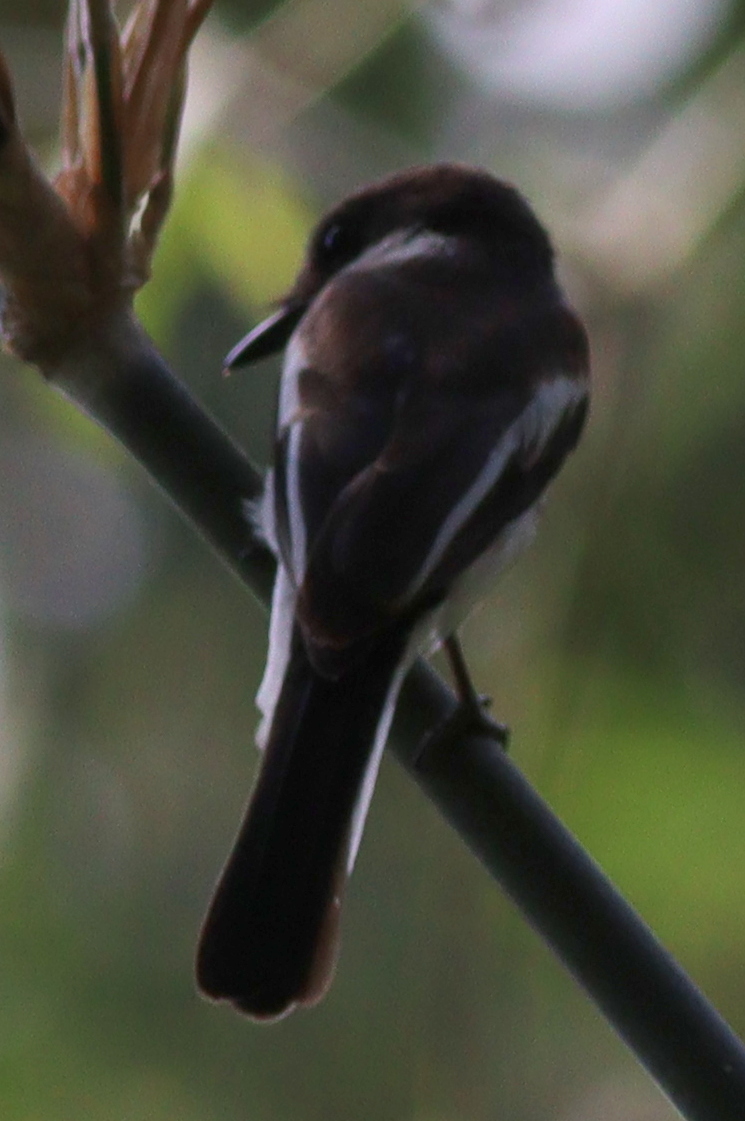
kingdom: Animalia
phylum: Chordata
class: Aves
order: Passeriformes
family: Tephrodornithidae
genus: Hemipus
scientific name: Hemipus picatus
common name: Bar-winged flycatcher-shrike
